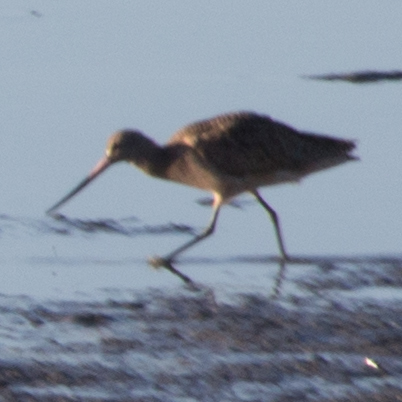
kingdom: Animalia
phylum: Chordata
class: Aves
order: Charadriiformes
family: Scolopacidae
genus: Limosa
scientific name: Limosa fedoa
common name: Marbled godwit
